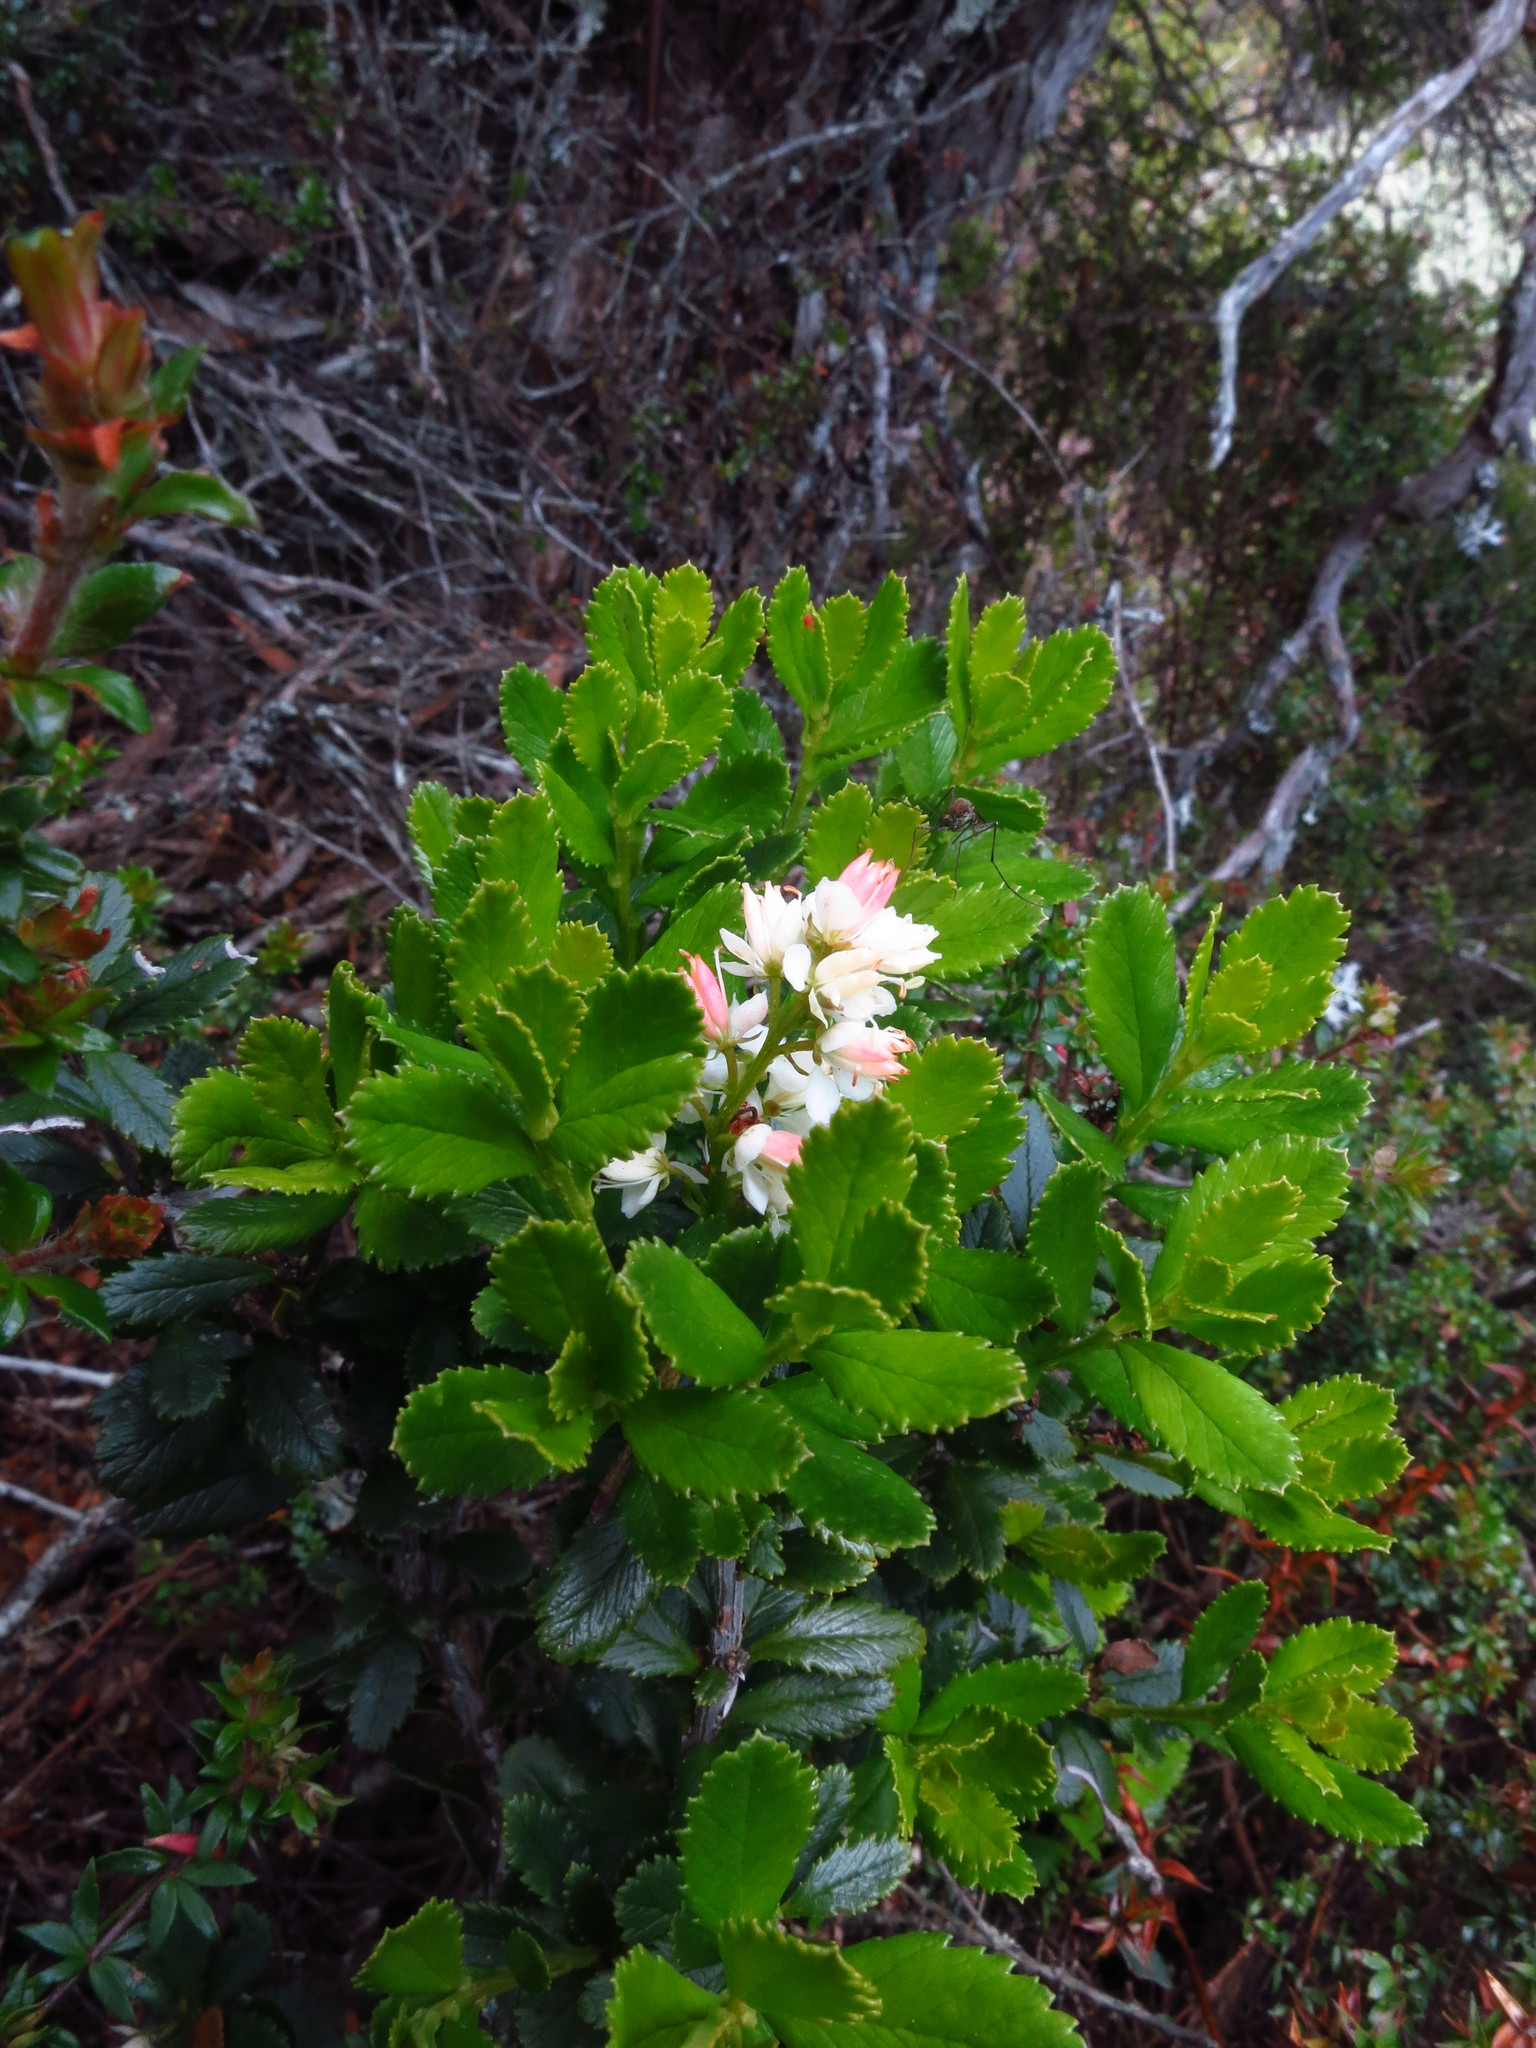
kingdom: Plantae
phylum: Tracheophyta
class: Magnoliopsida
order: Saxifragales
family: Tetracarpaeaceae
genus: Tetracarpaea
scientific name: Tetracarpaea tasmanica
